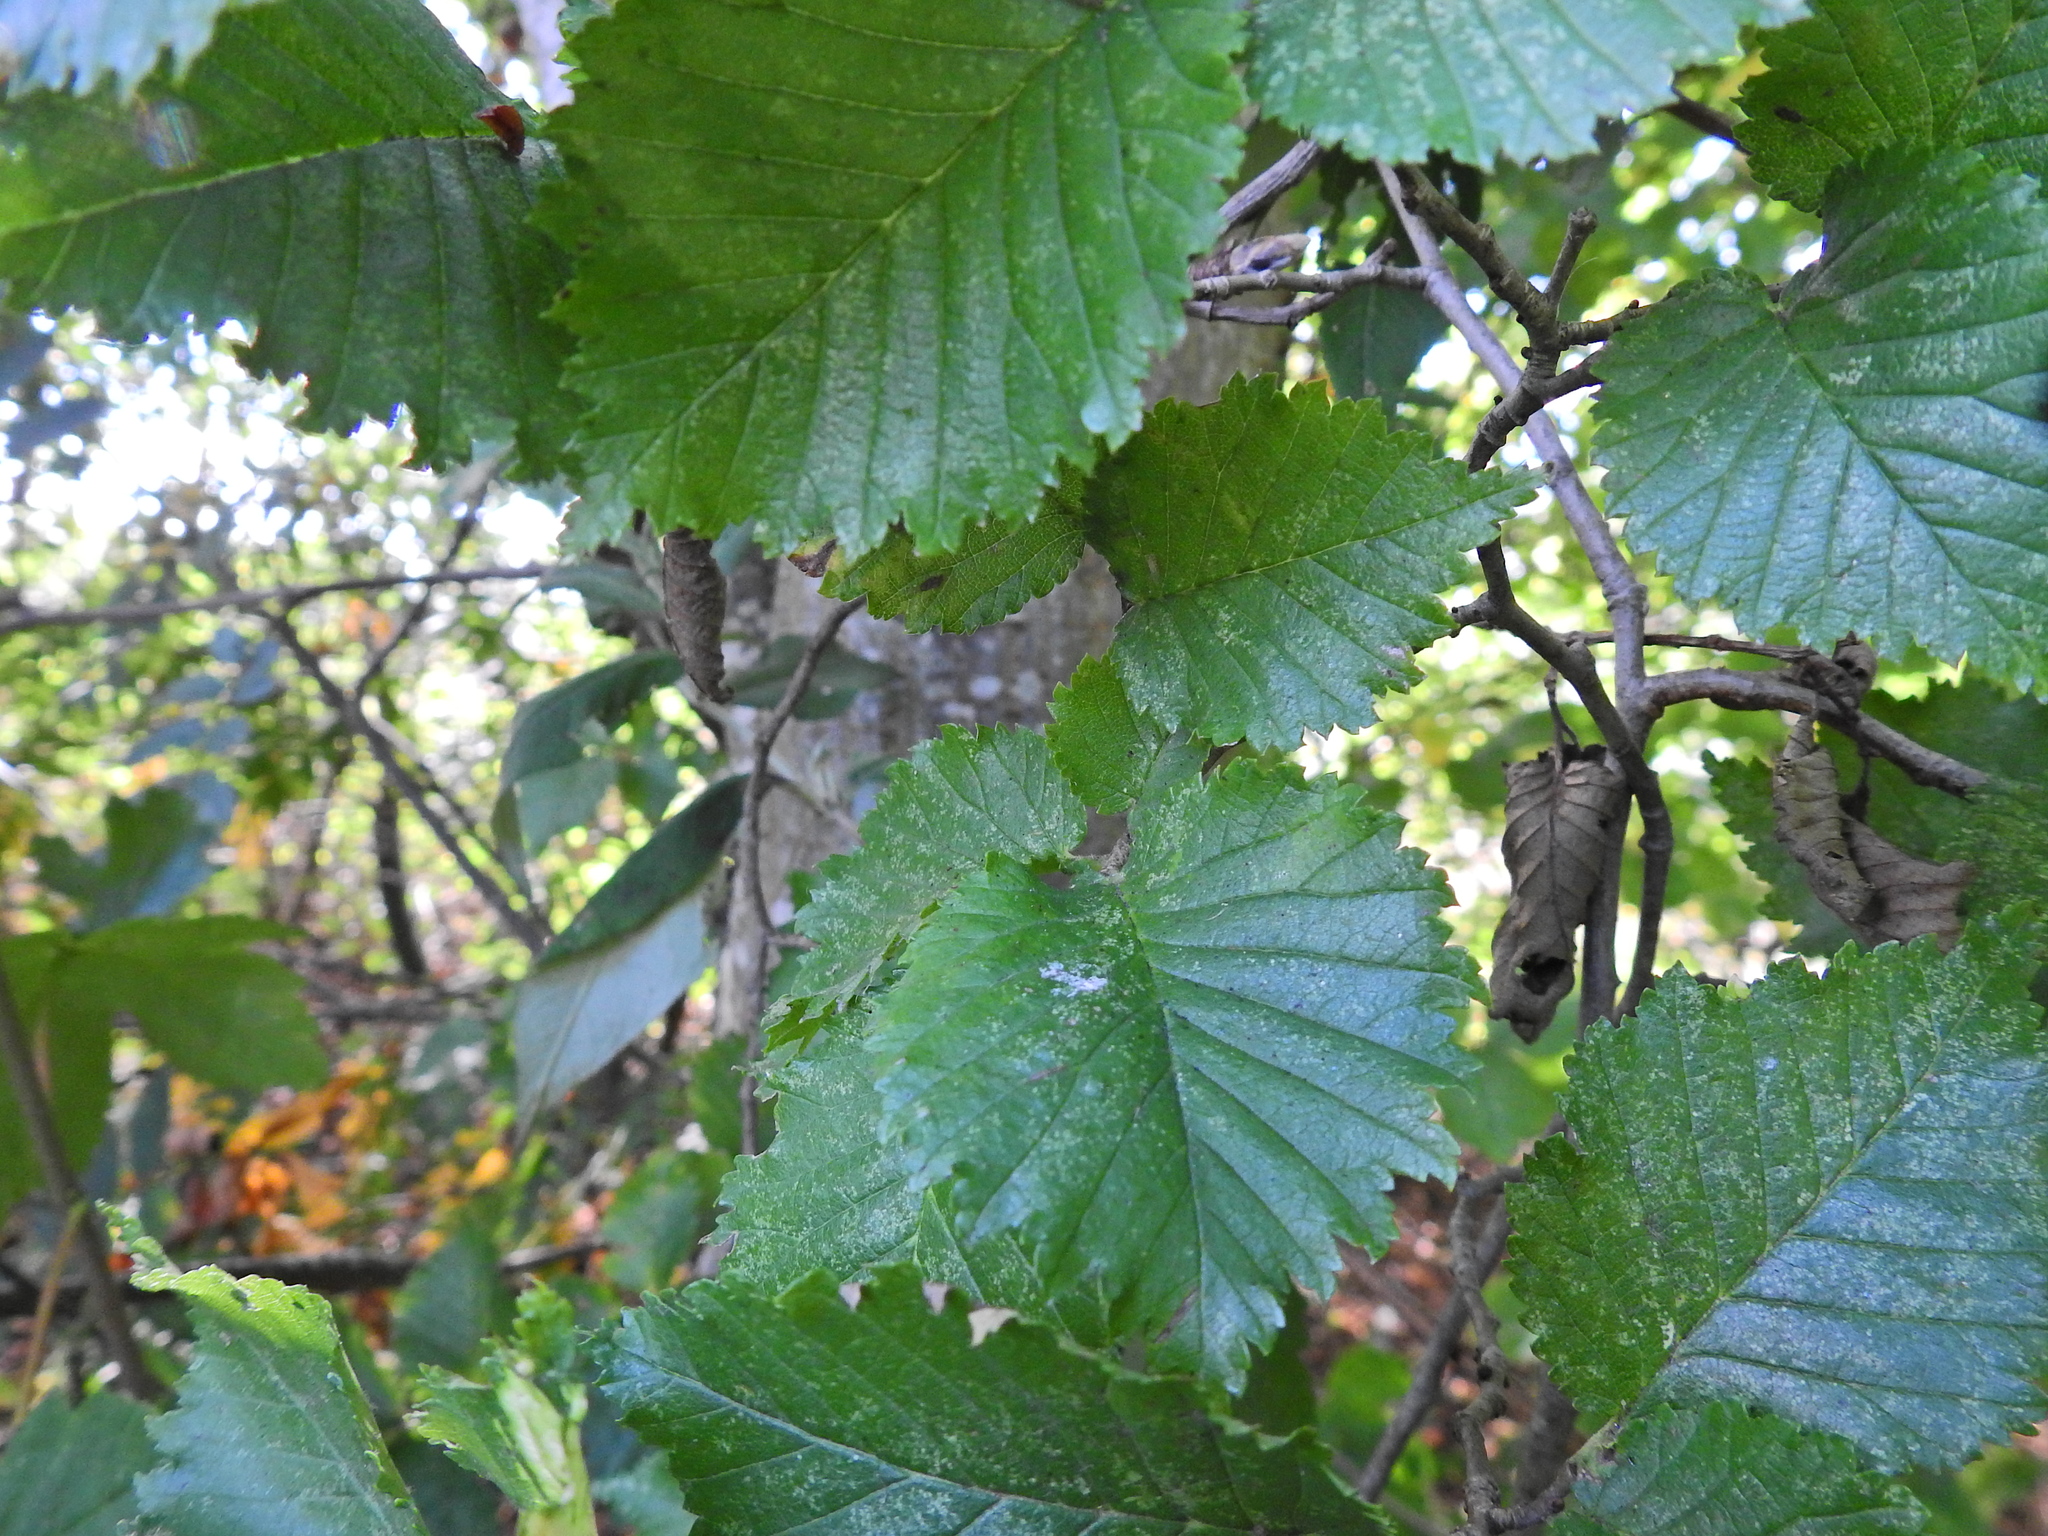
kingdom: Plantae
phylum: Tracheophyta
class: Magnoliopsida
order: Rosales
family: Ulmaceae
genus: Ulmus
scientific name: Ulmus glabra
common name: Wych elm
